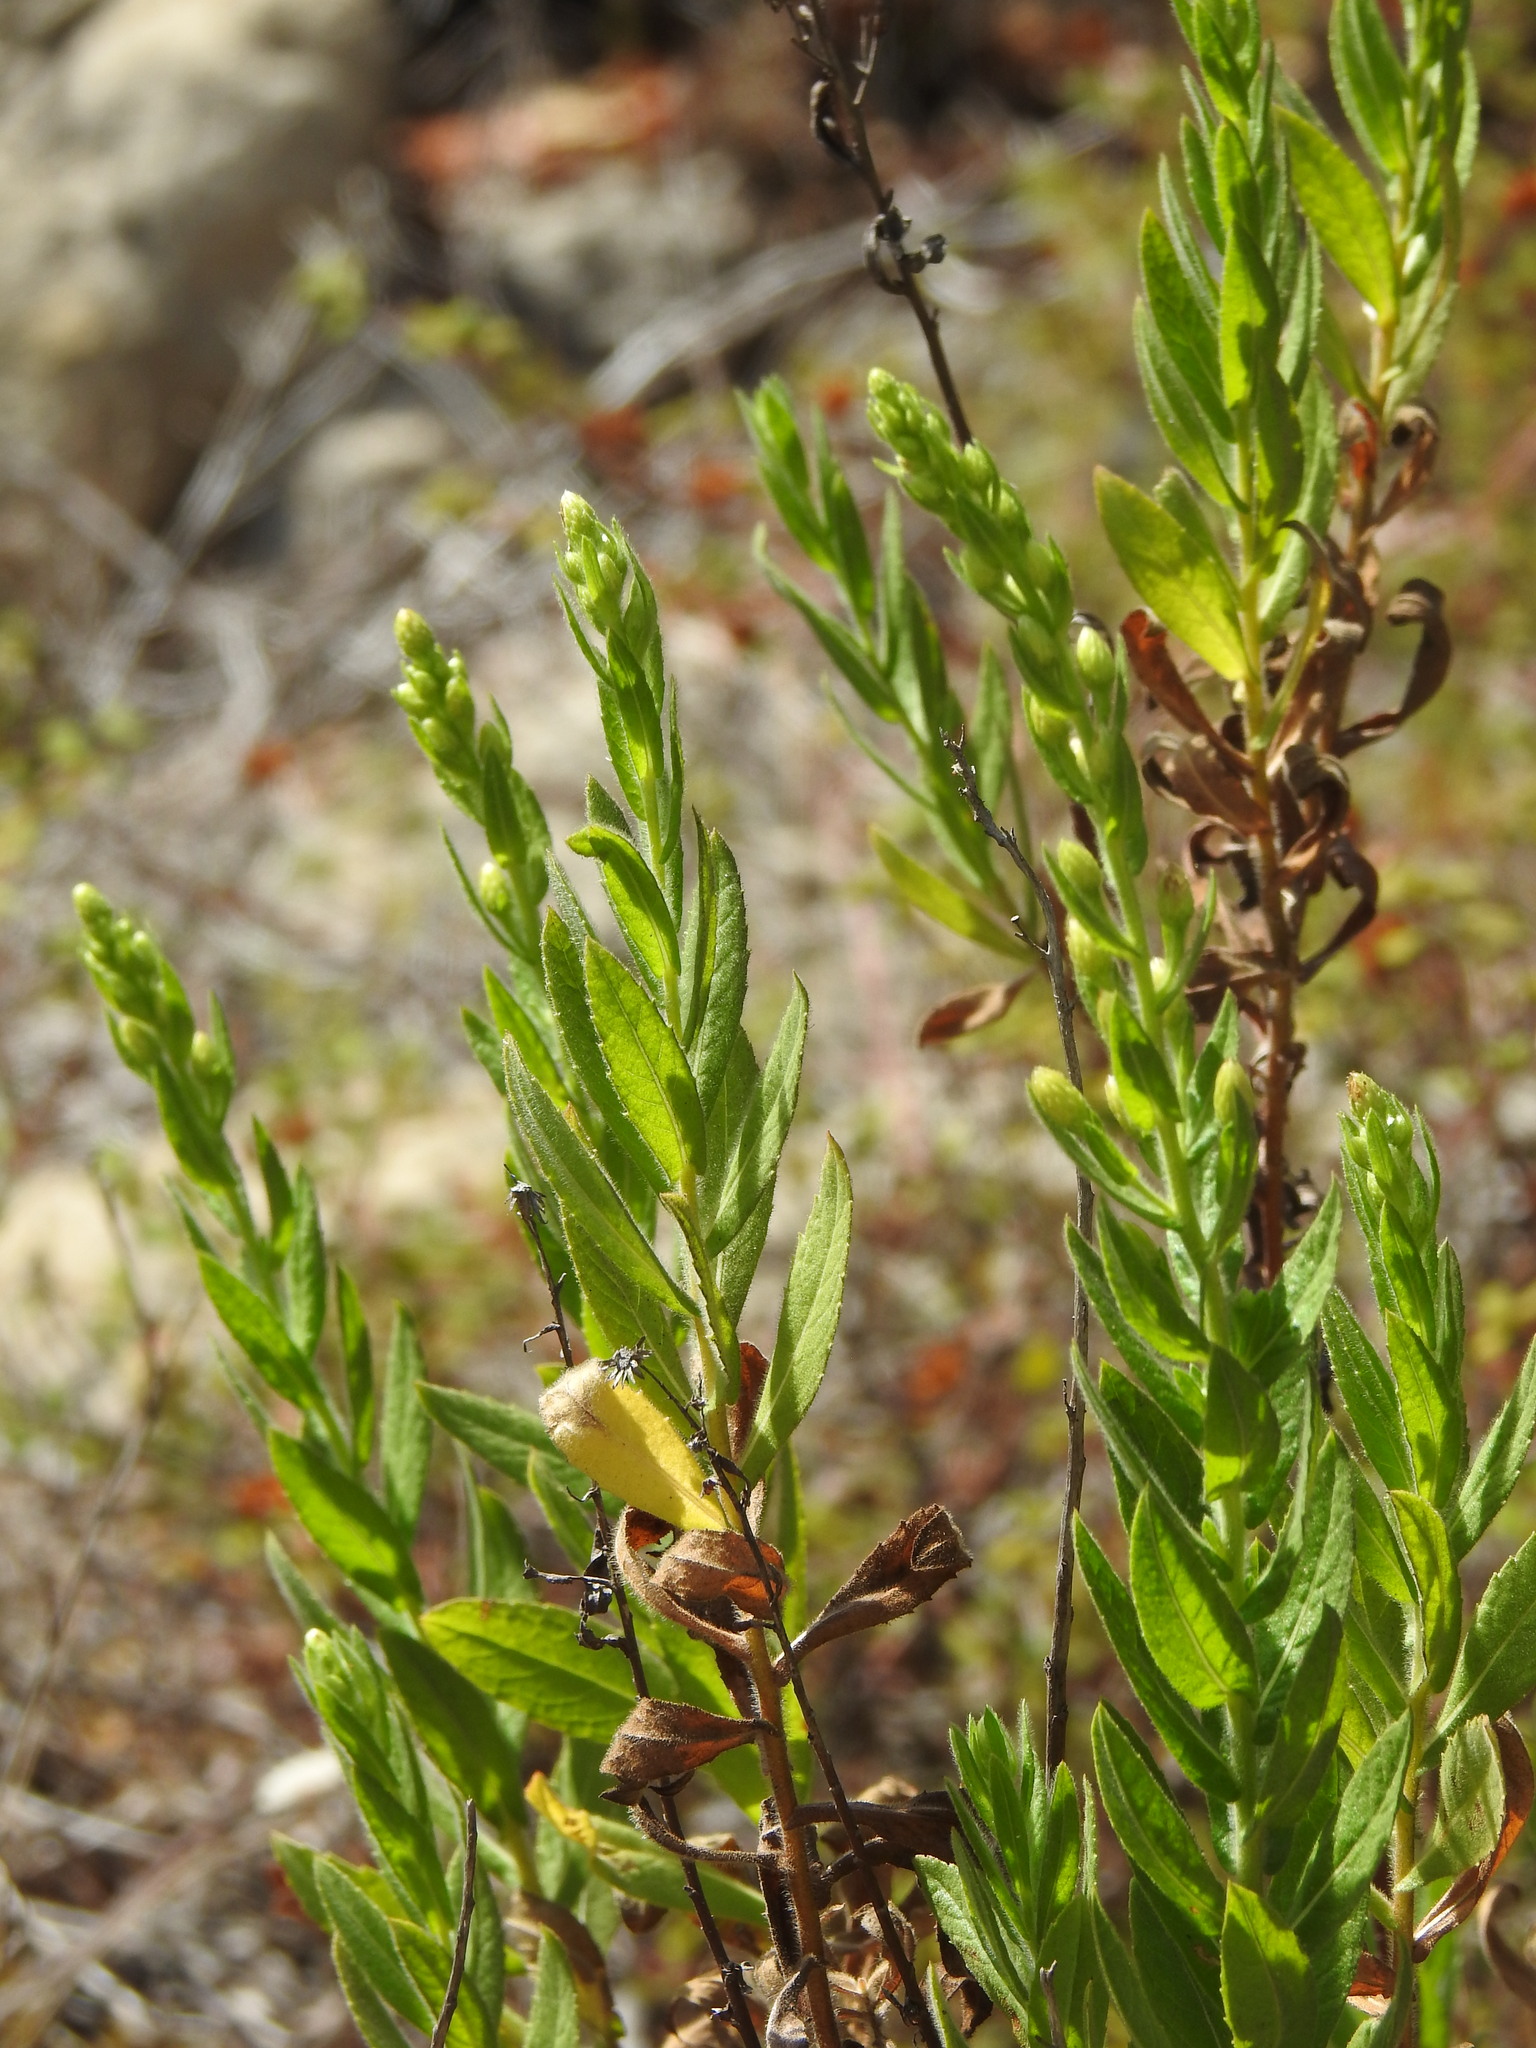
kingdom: Plantae
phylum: Tracheophyta
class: Magnoliopsida
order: Asterales
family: Asteraceae
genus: Dittrichia
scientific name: Dittrichia viscosa
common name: Woody fleabane
